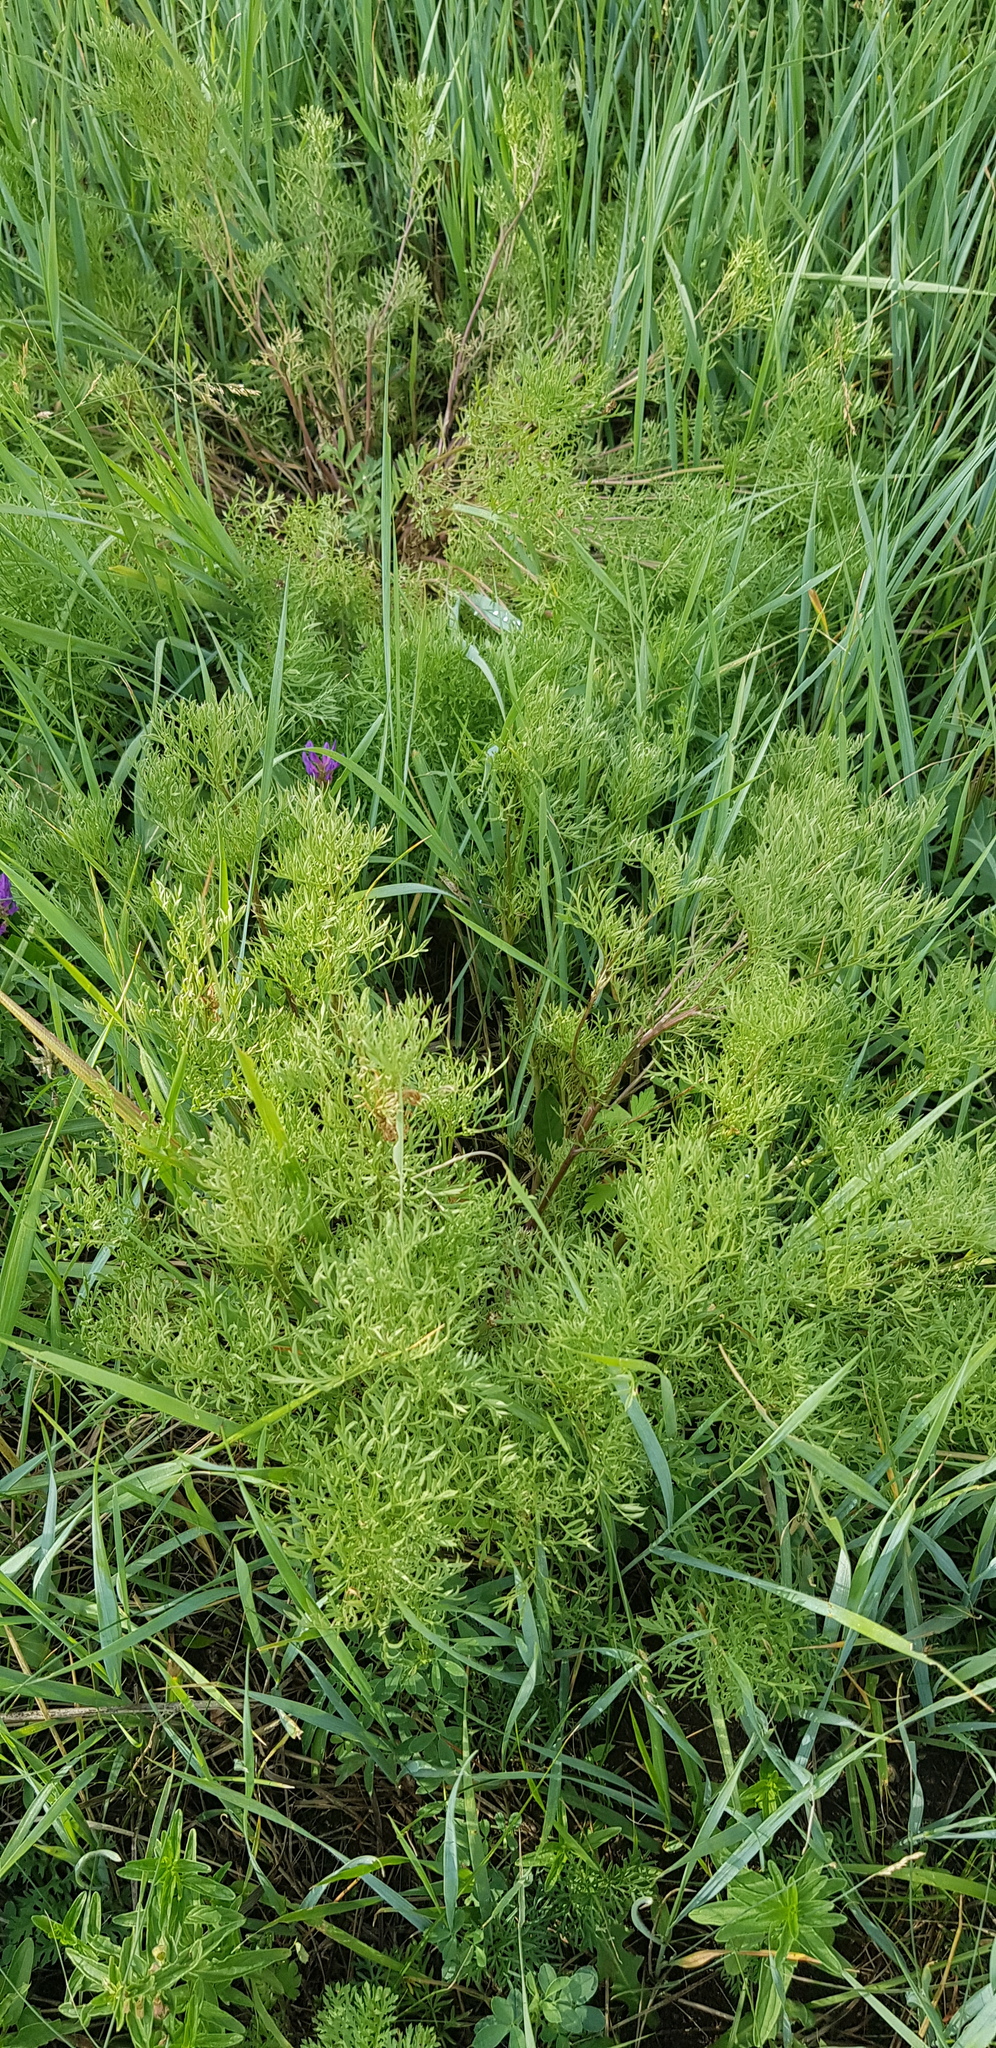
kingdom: Plantae
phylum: Tracheophyta
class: Magnoliopsida
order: Ranunculales
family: Ranunculaceae
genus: Adonis
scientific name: Adonis mongolica
